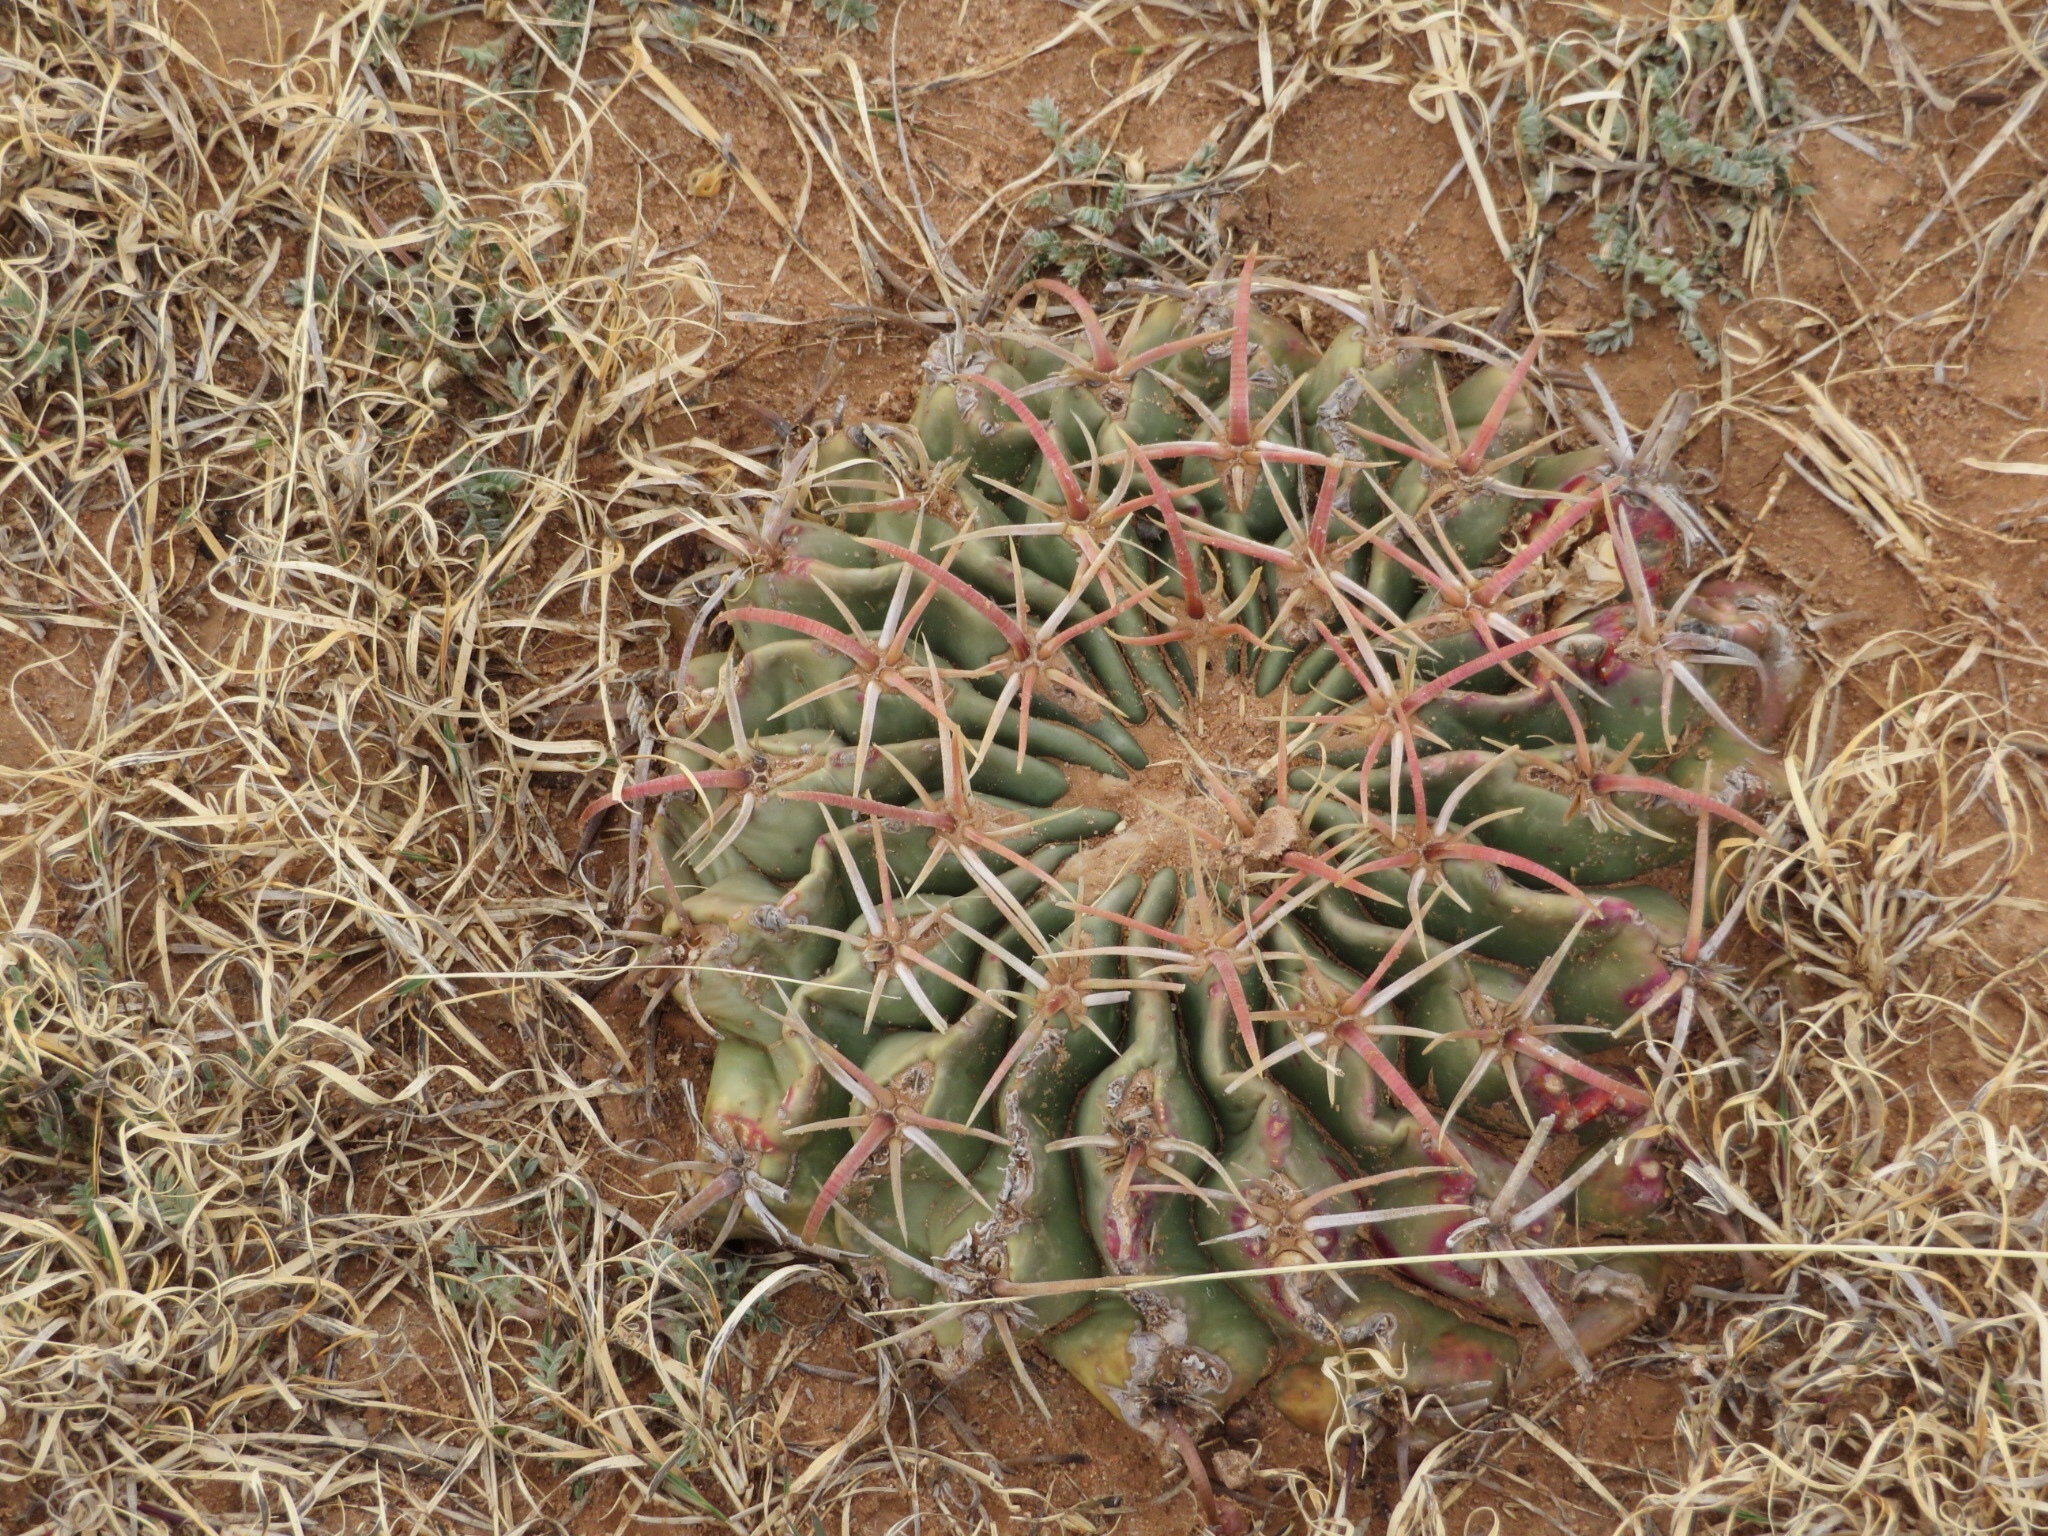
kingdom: Plantae
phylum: Tracheophyta
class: Magnoliopsida
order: Caryophyllales
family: Cactaceae
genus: Echinocactus
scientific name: Echinocactus texensis
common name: Devil's pincushion
